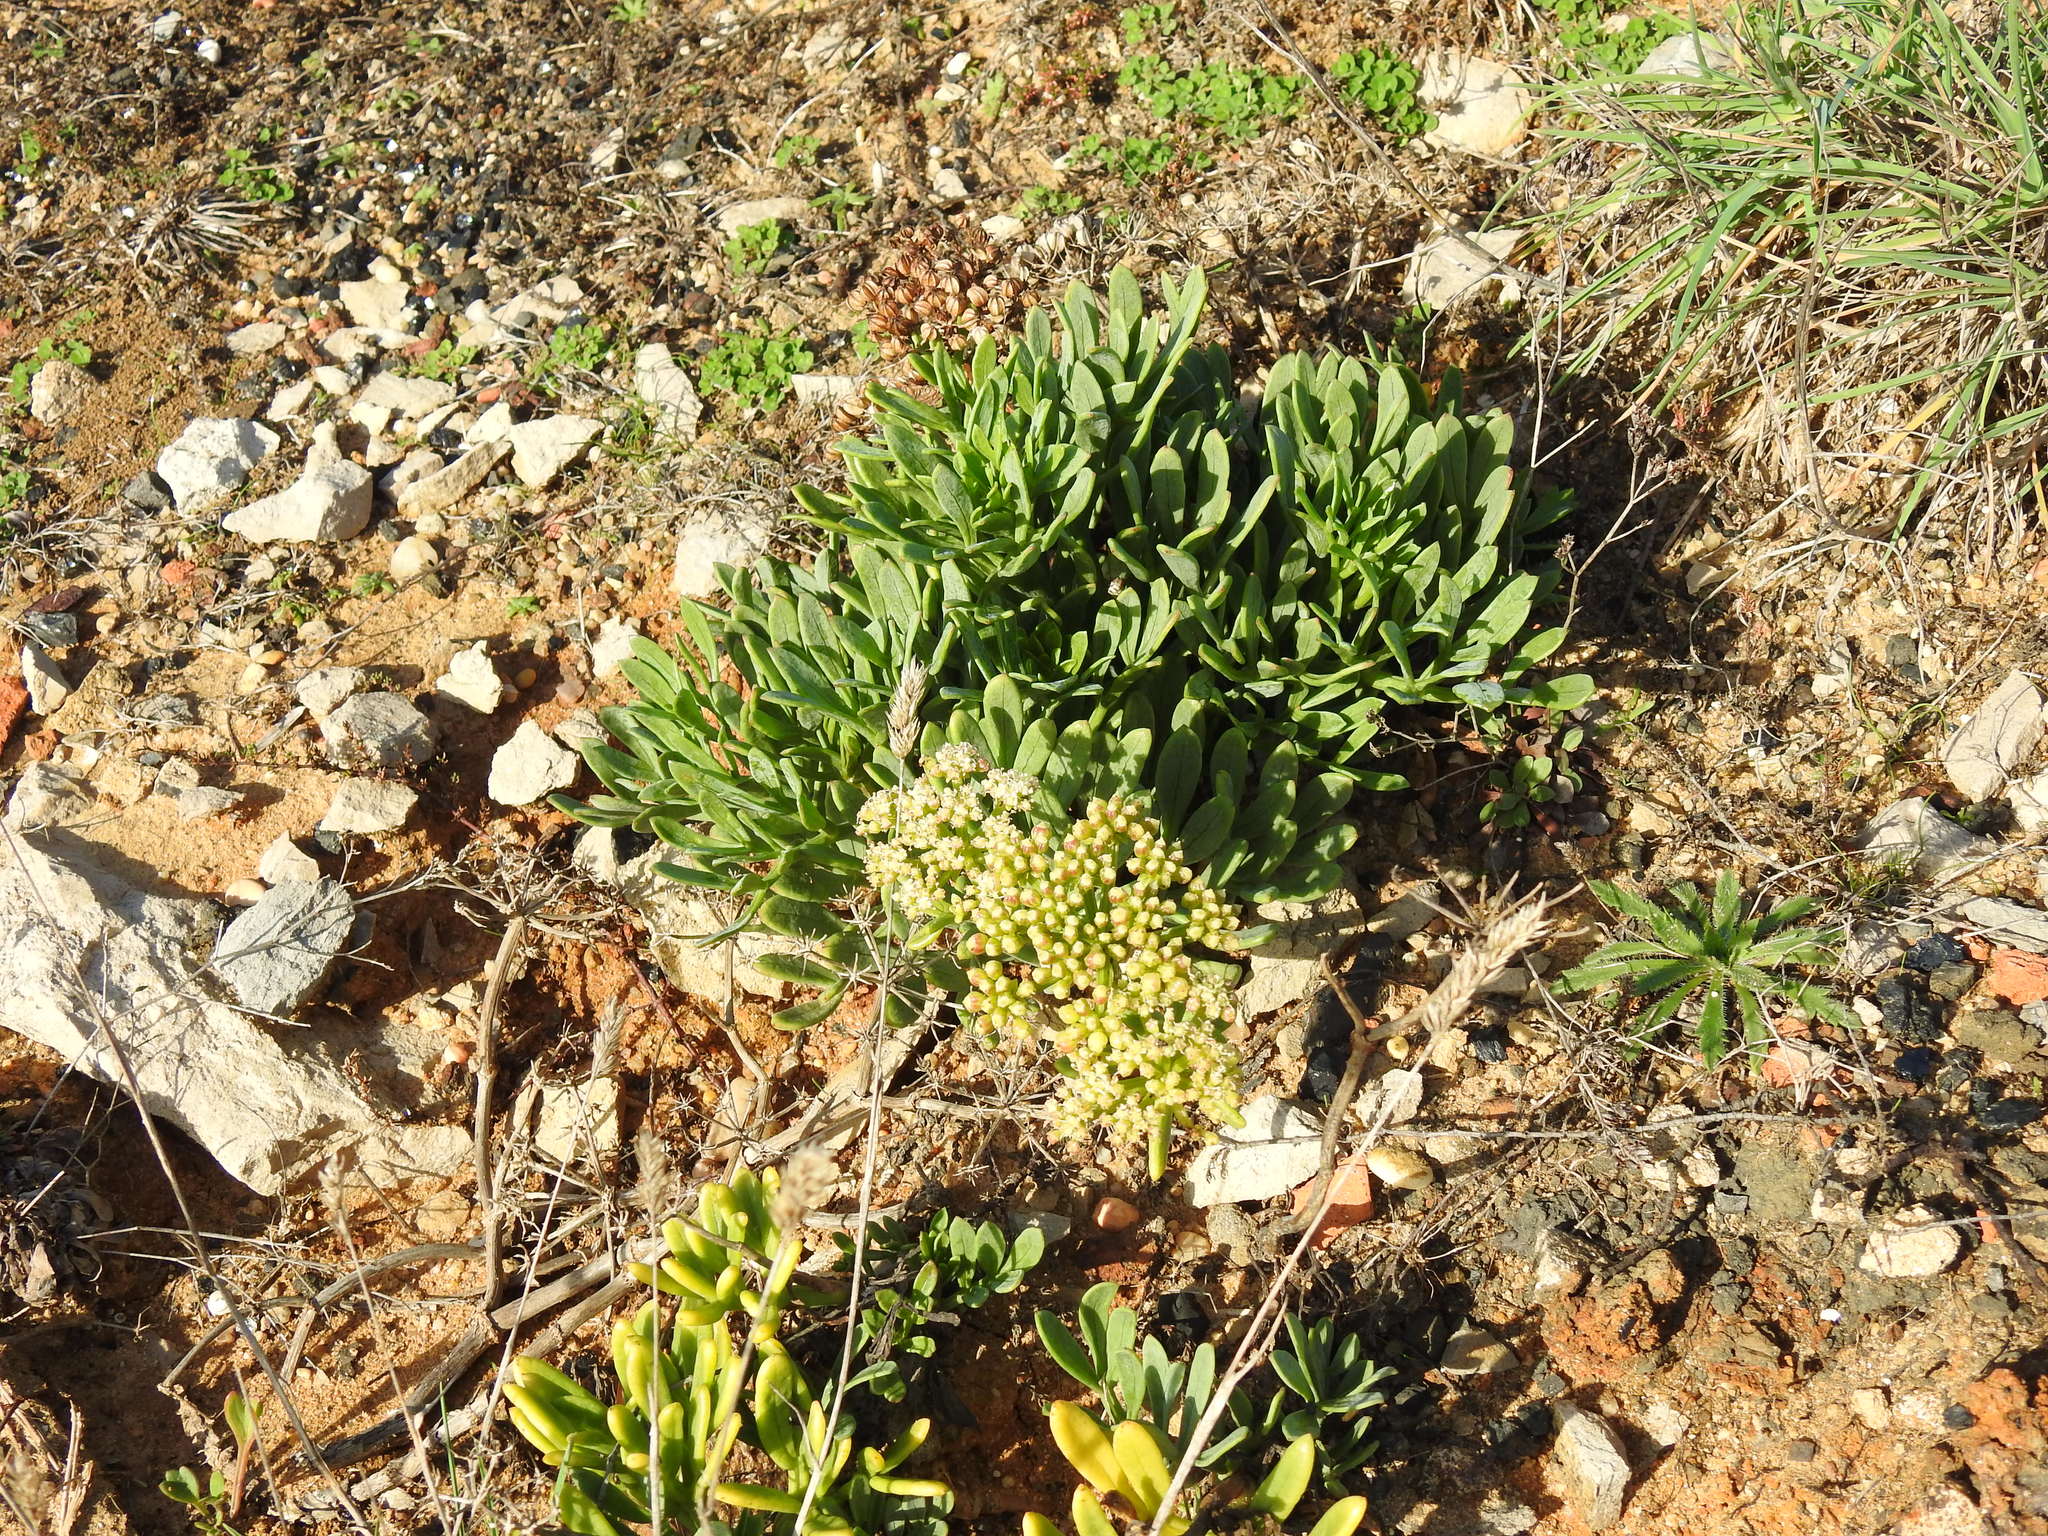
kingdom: Plantae
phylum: Tracheophyta
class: Magnoliopsida
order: Apiales
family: Apiaceae
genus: Crithmum
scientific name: Crithmum maritimum
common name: Rock samphire
